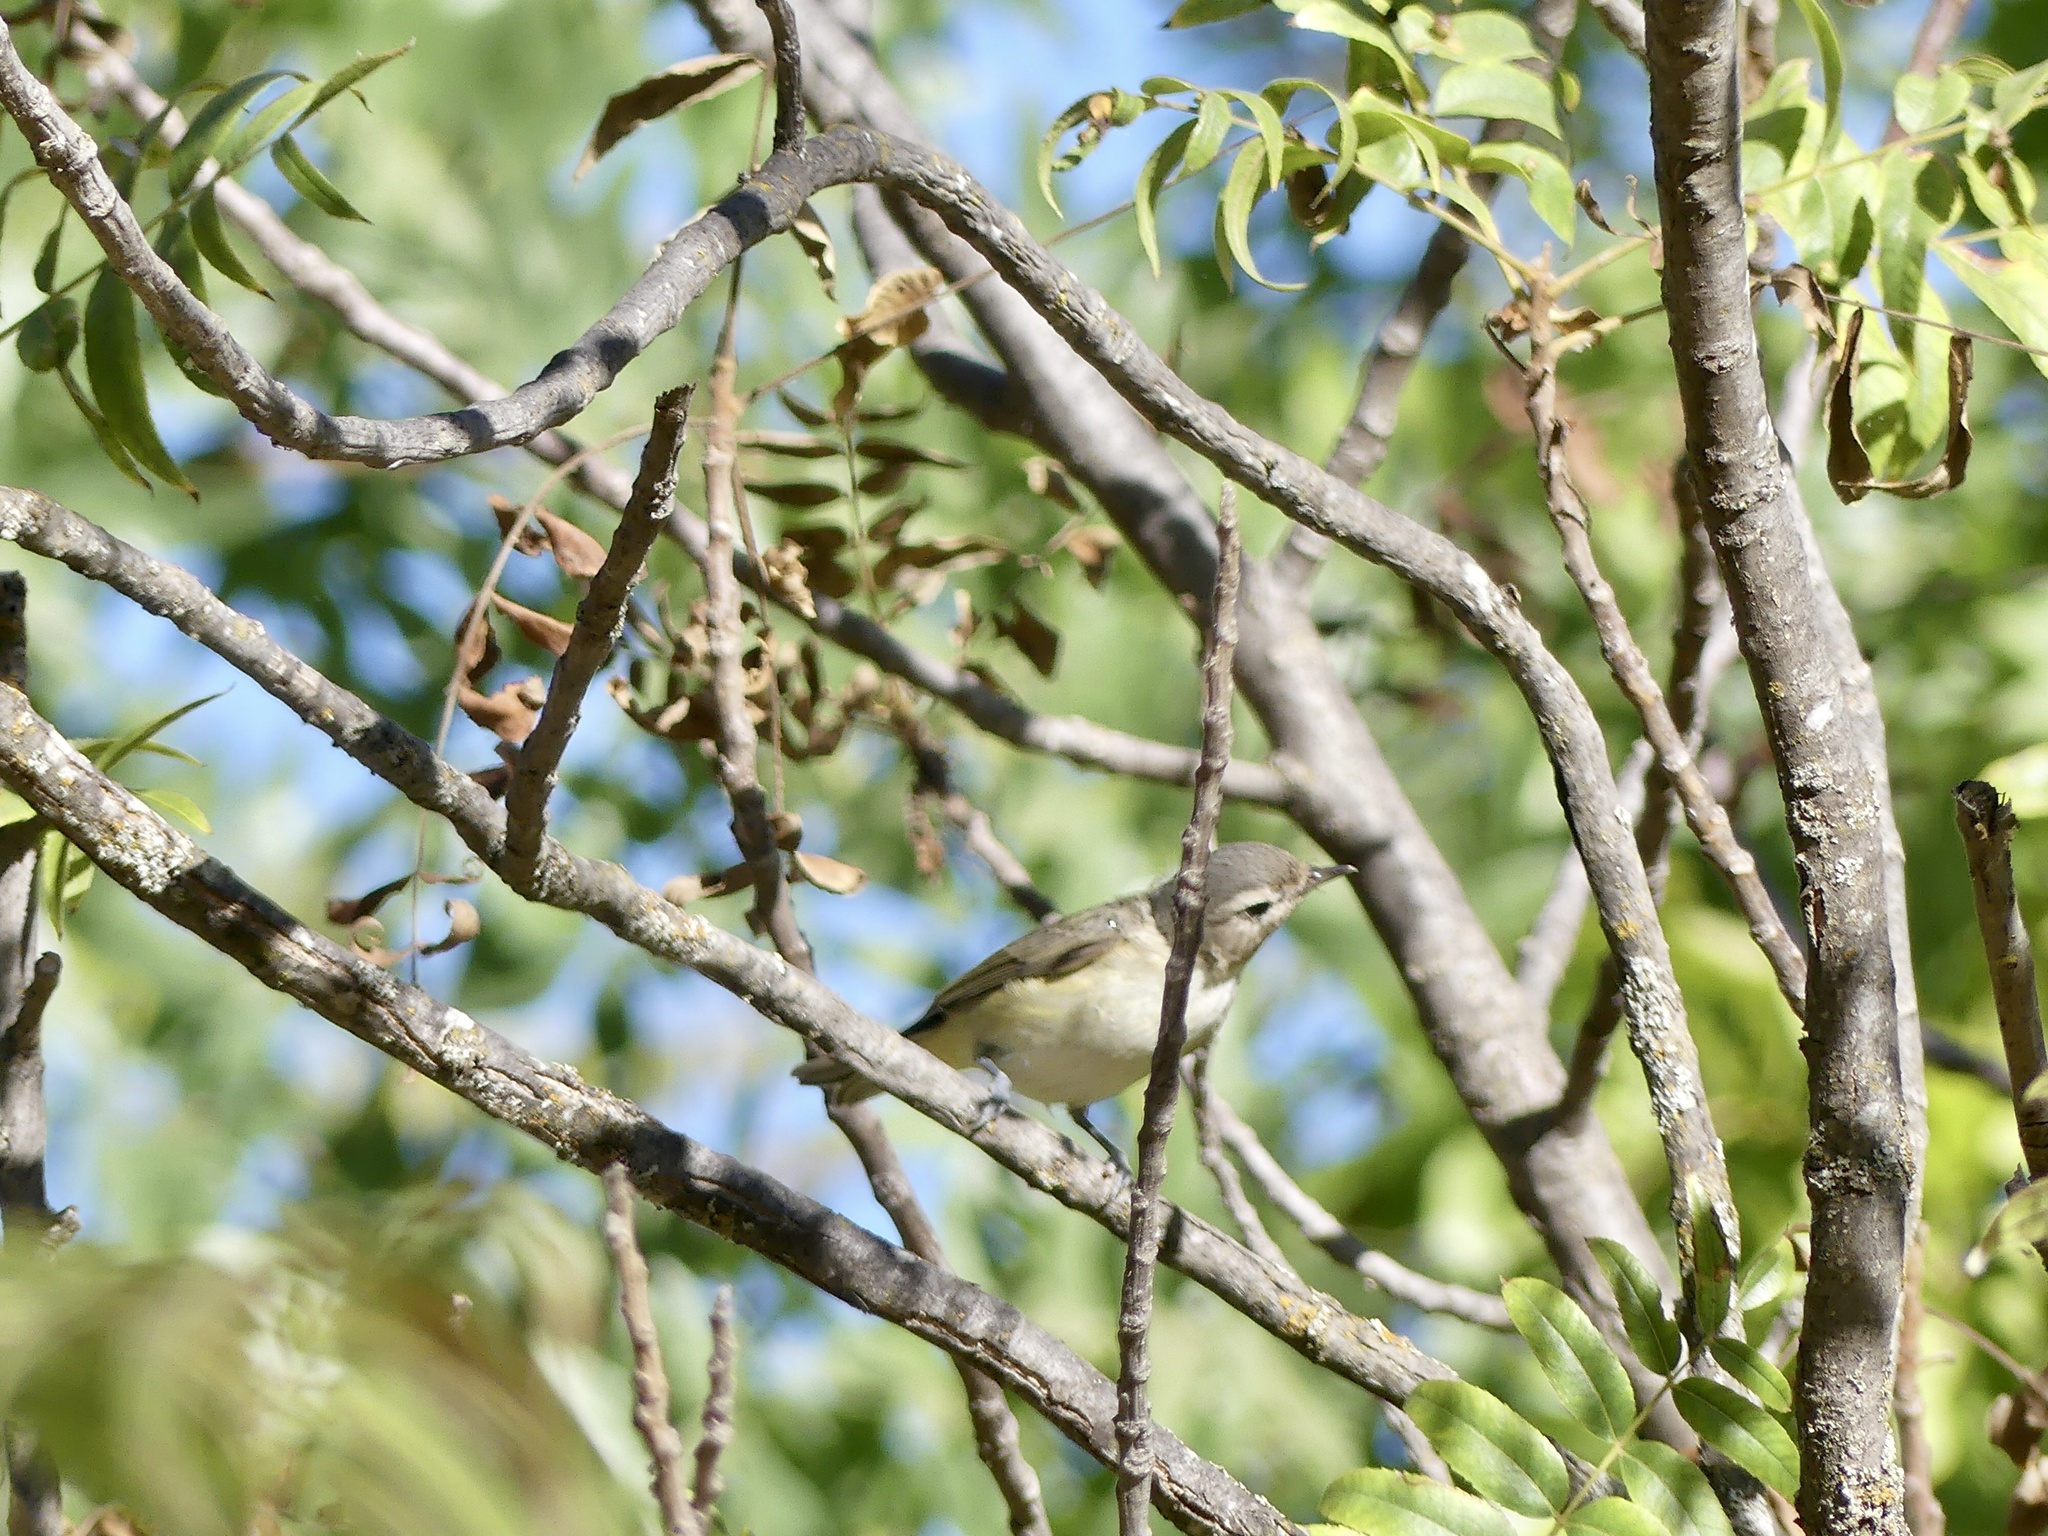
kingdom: Animalia
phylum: Chordata
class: Aves
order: Passeriformes
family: Vireonidae
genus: Vireo
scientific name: Vireo gilvus
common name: Warbling vireo
